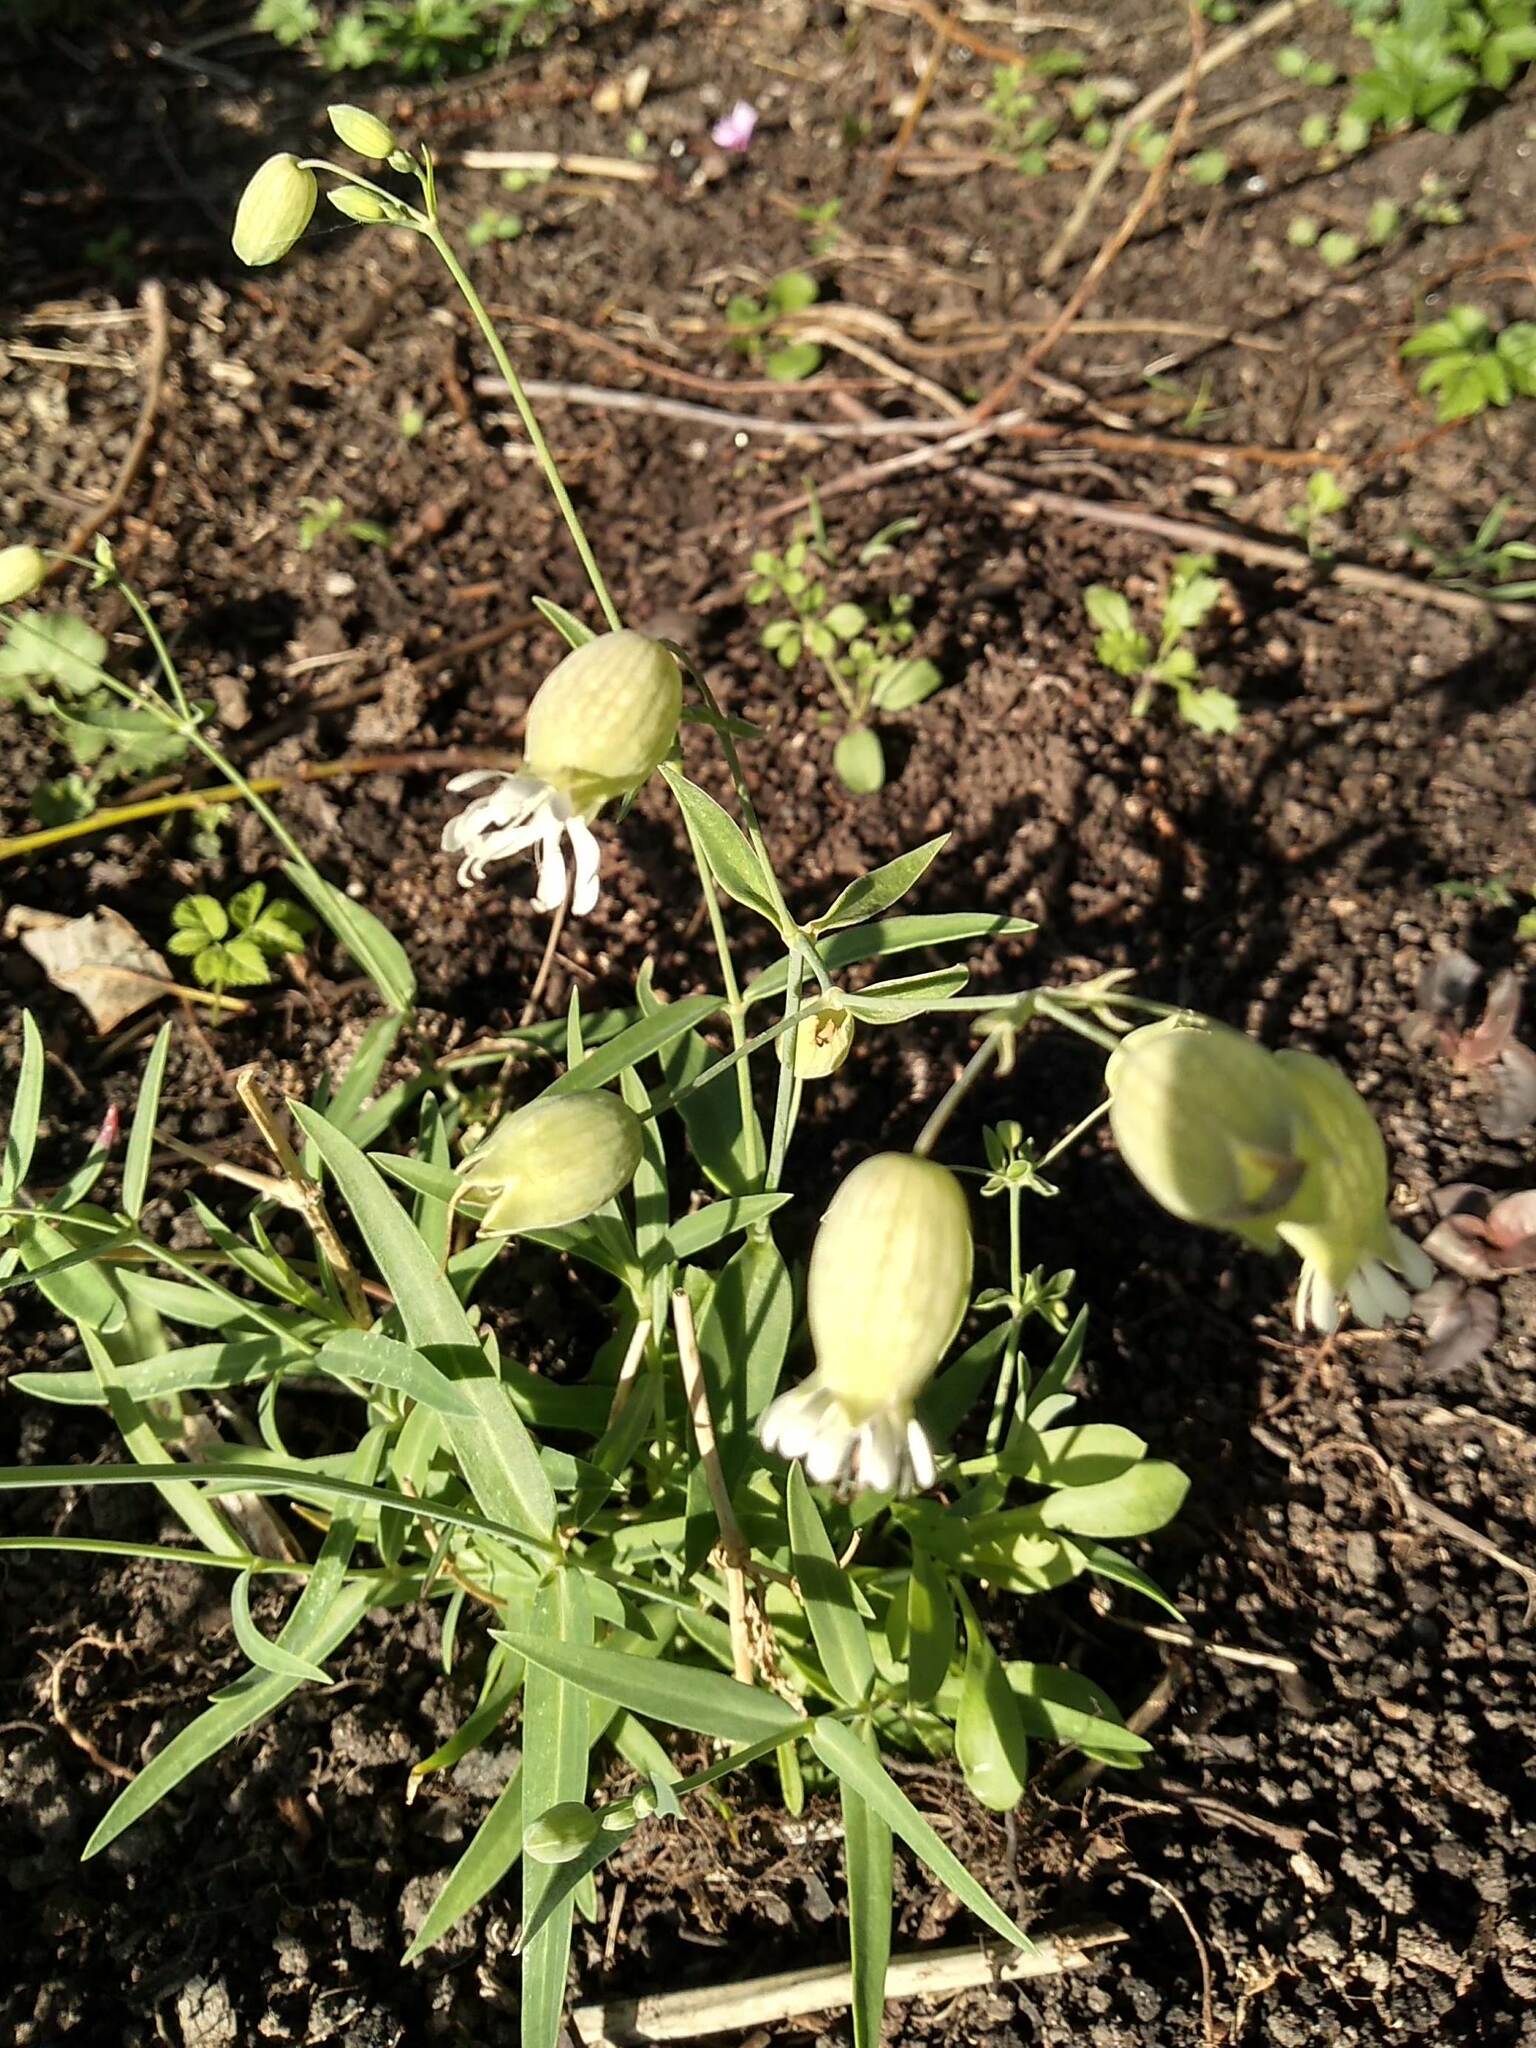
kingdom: Plantae
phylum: Tracheophyta
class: Magnoliopsida
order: Caryophyllales
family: Caryophyllaceae
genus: Silene
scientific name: Silene vulgaris
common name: Bladder campion
